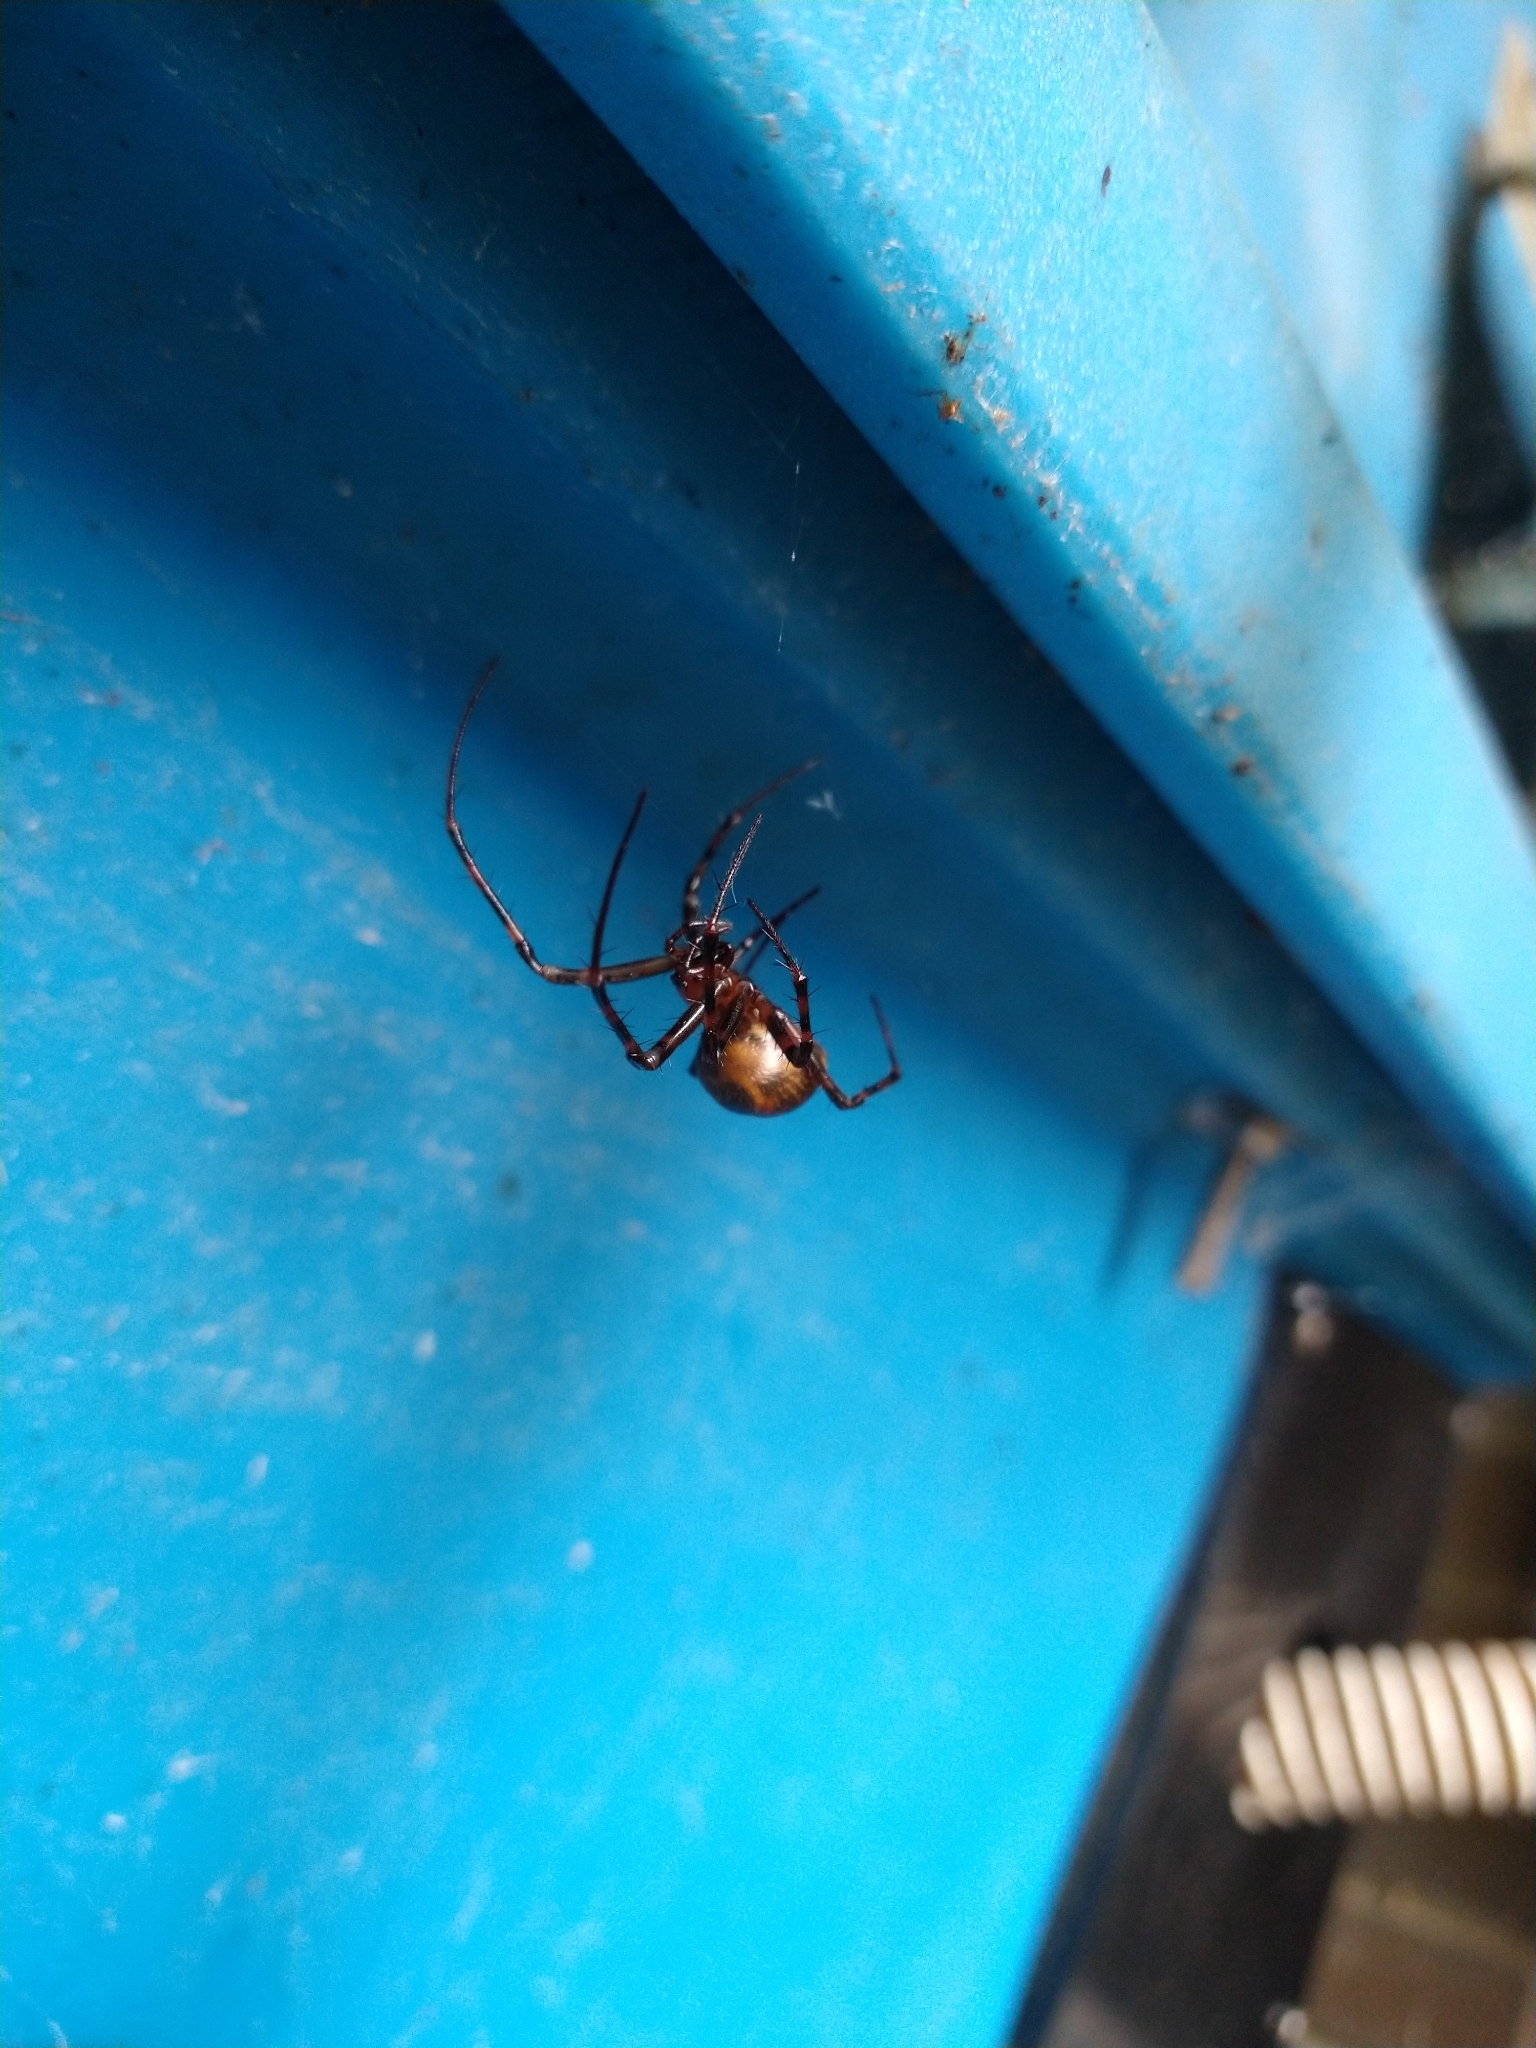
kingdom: Animalia
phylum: Arthropoda
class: Arachnida
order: Araneae
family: Tetragnathidae
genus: Meta
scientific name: Meta menardi
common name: Cave spider
